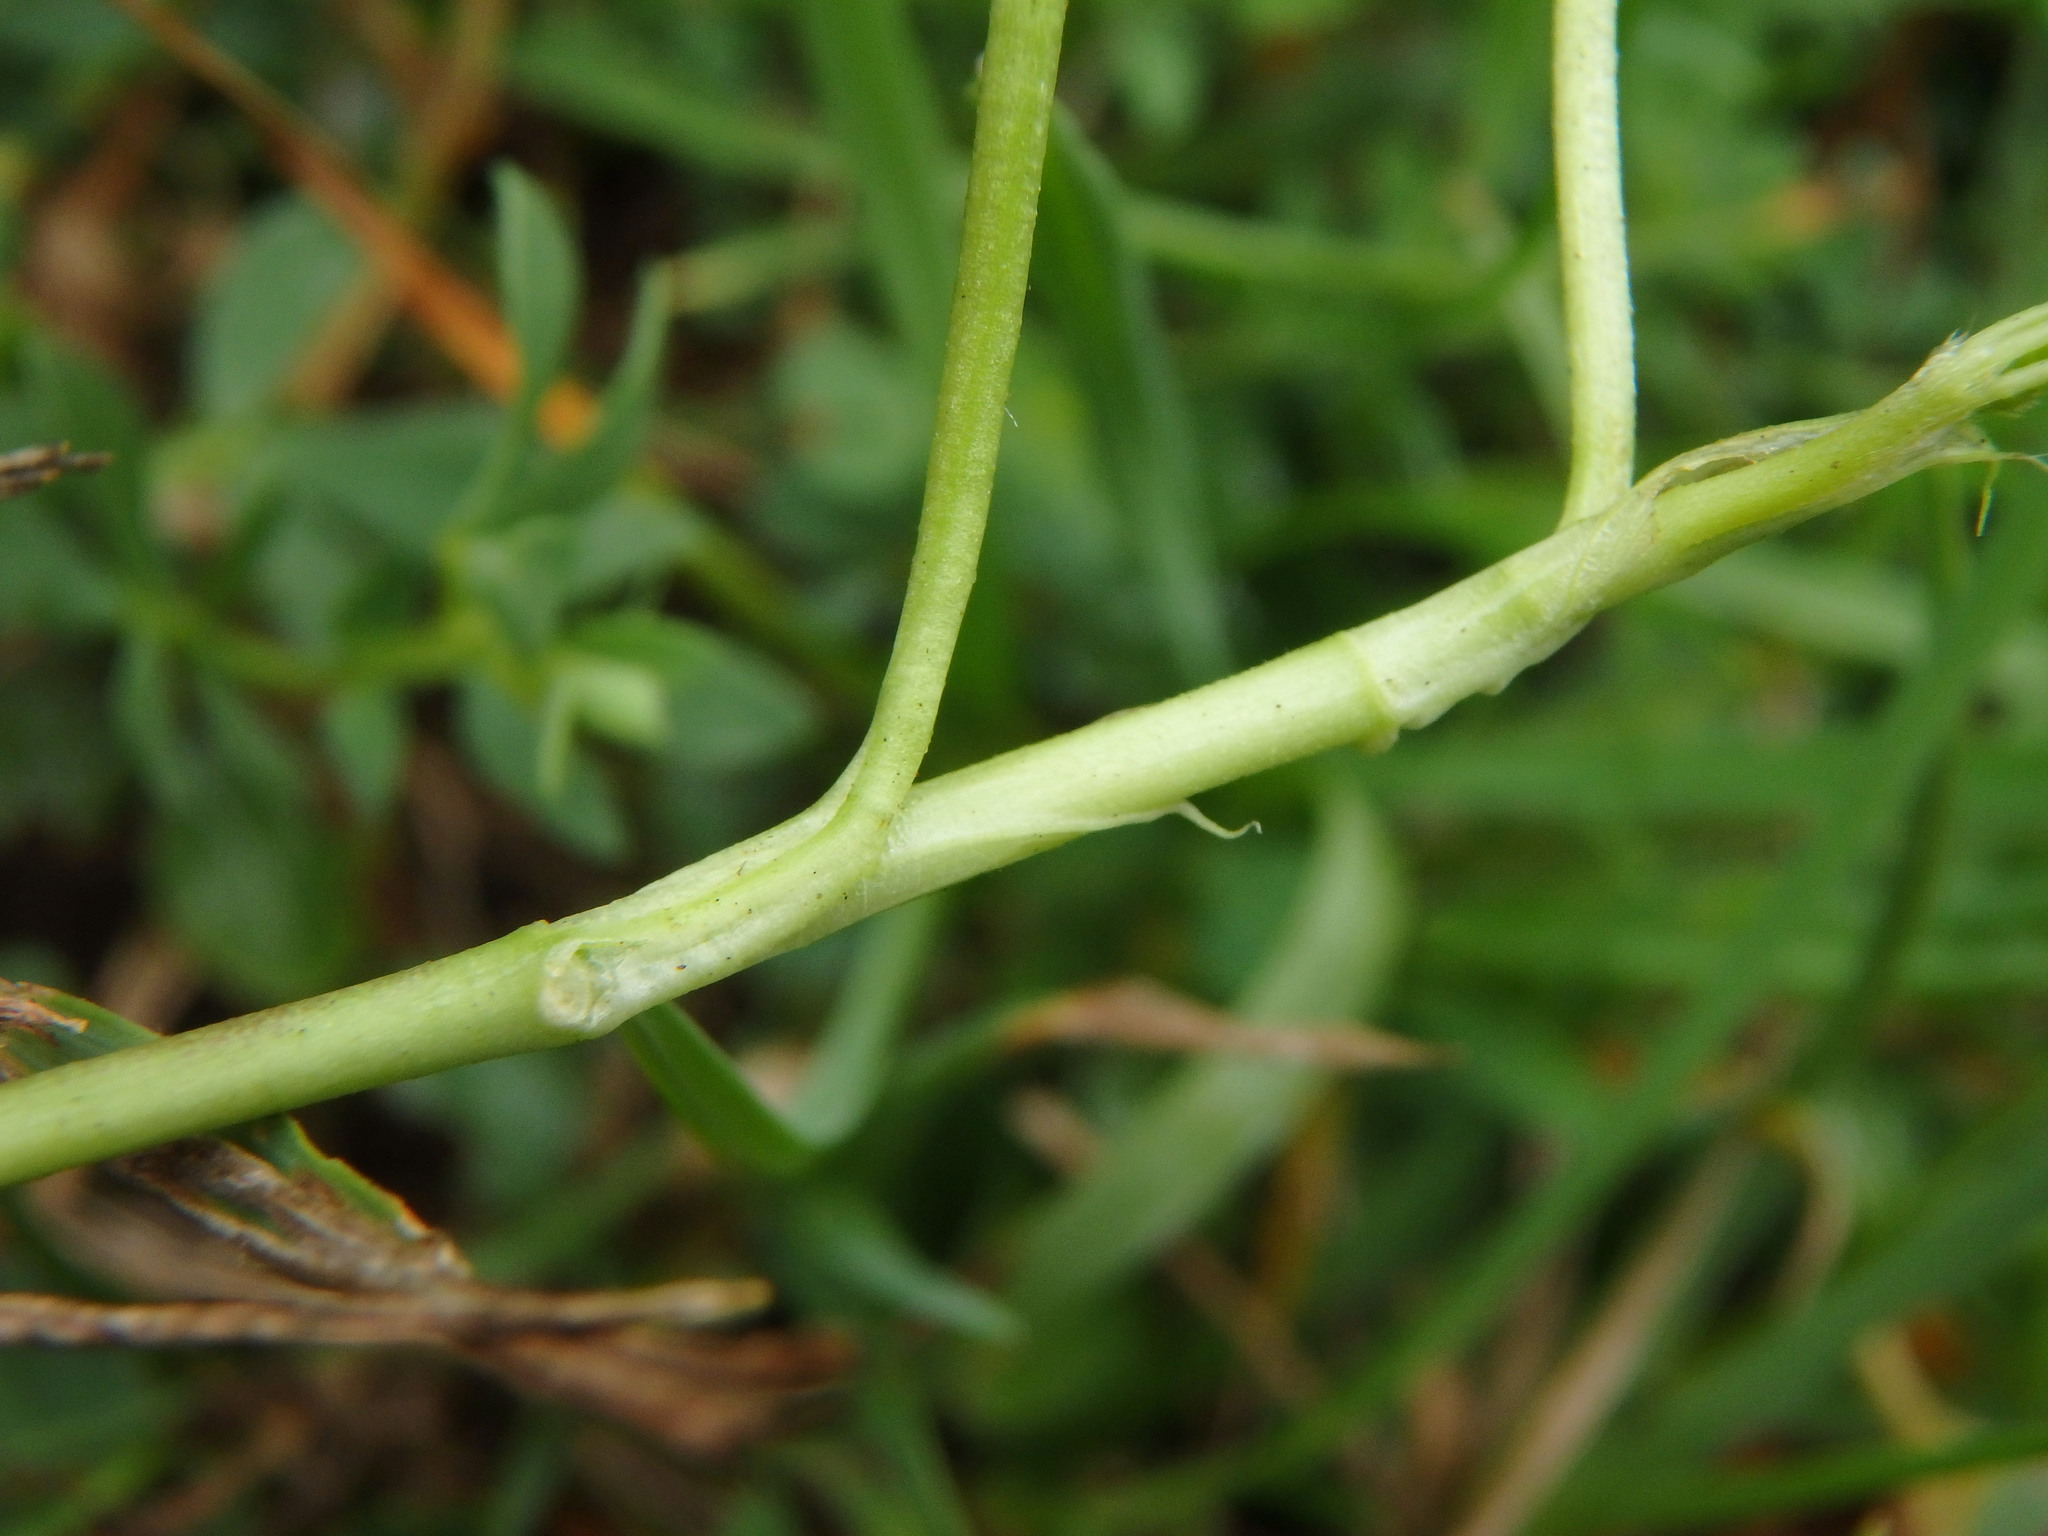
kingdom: Plantae
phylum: Tracheophyta
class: Magnoliopsida
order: Fabales
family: Fabaceae
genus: Trifolium
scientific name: Trifolium repens
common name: White clover
